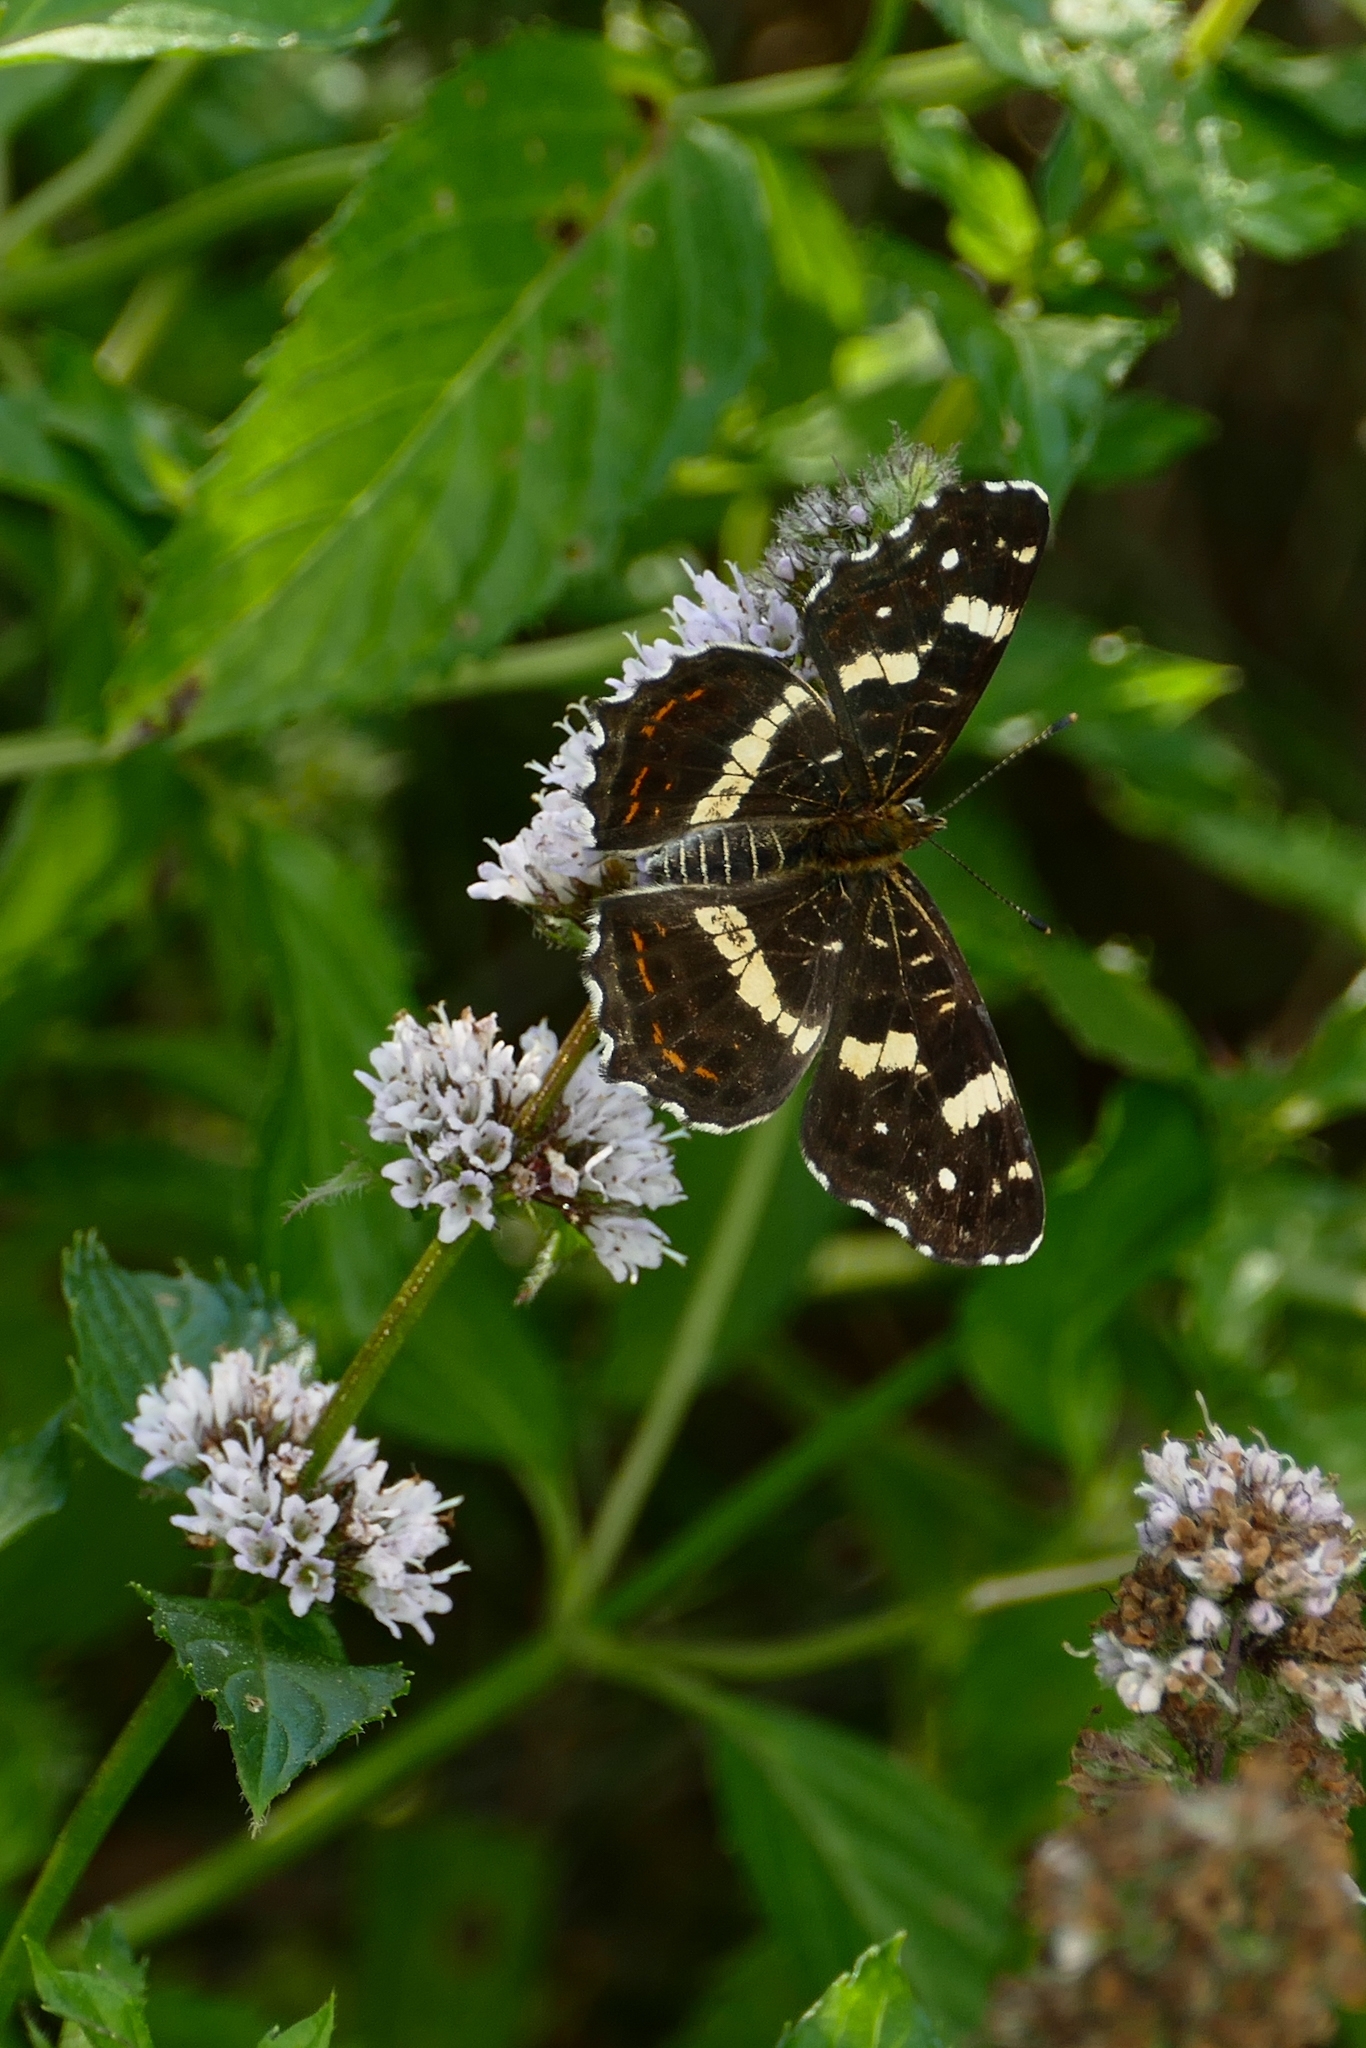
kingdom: Animalia
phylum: Arthropoda
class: Insecta
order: Lepidoptera
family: Nymphalidae
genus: Araschnia
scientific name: Araschnia levana
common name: Map butterfly
